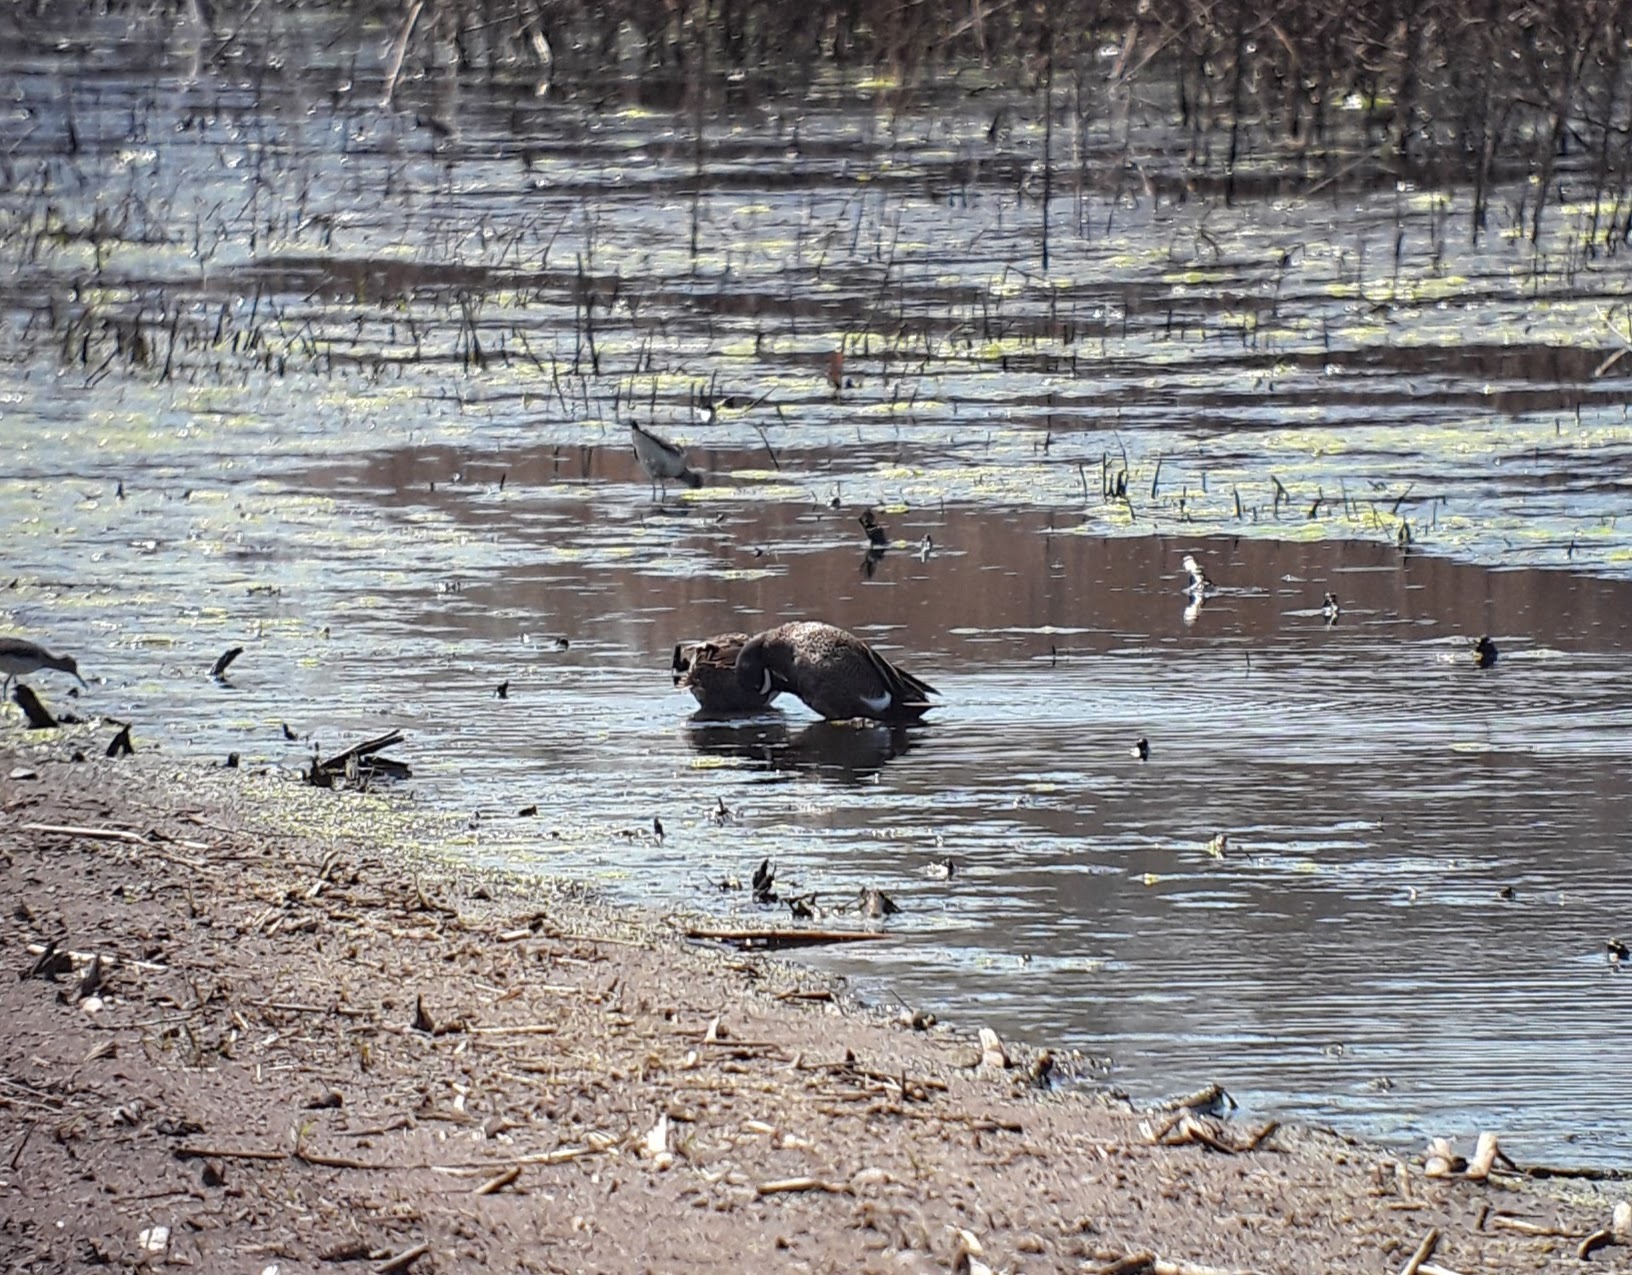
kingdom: Animalia
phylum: Chordata
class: Aves
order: Anseriformes
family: Anatidae
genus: Spatula
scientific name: Spatula discors
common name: Blue-winged teal
